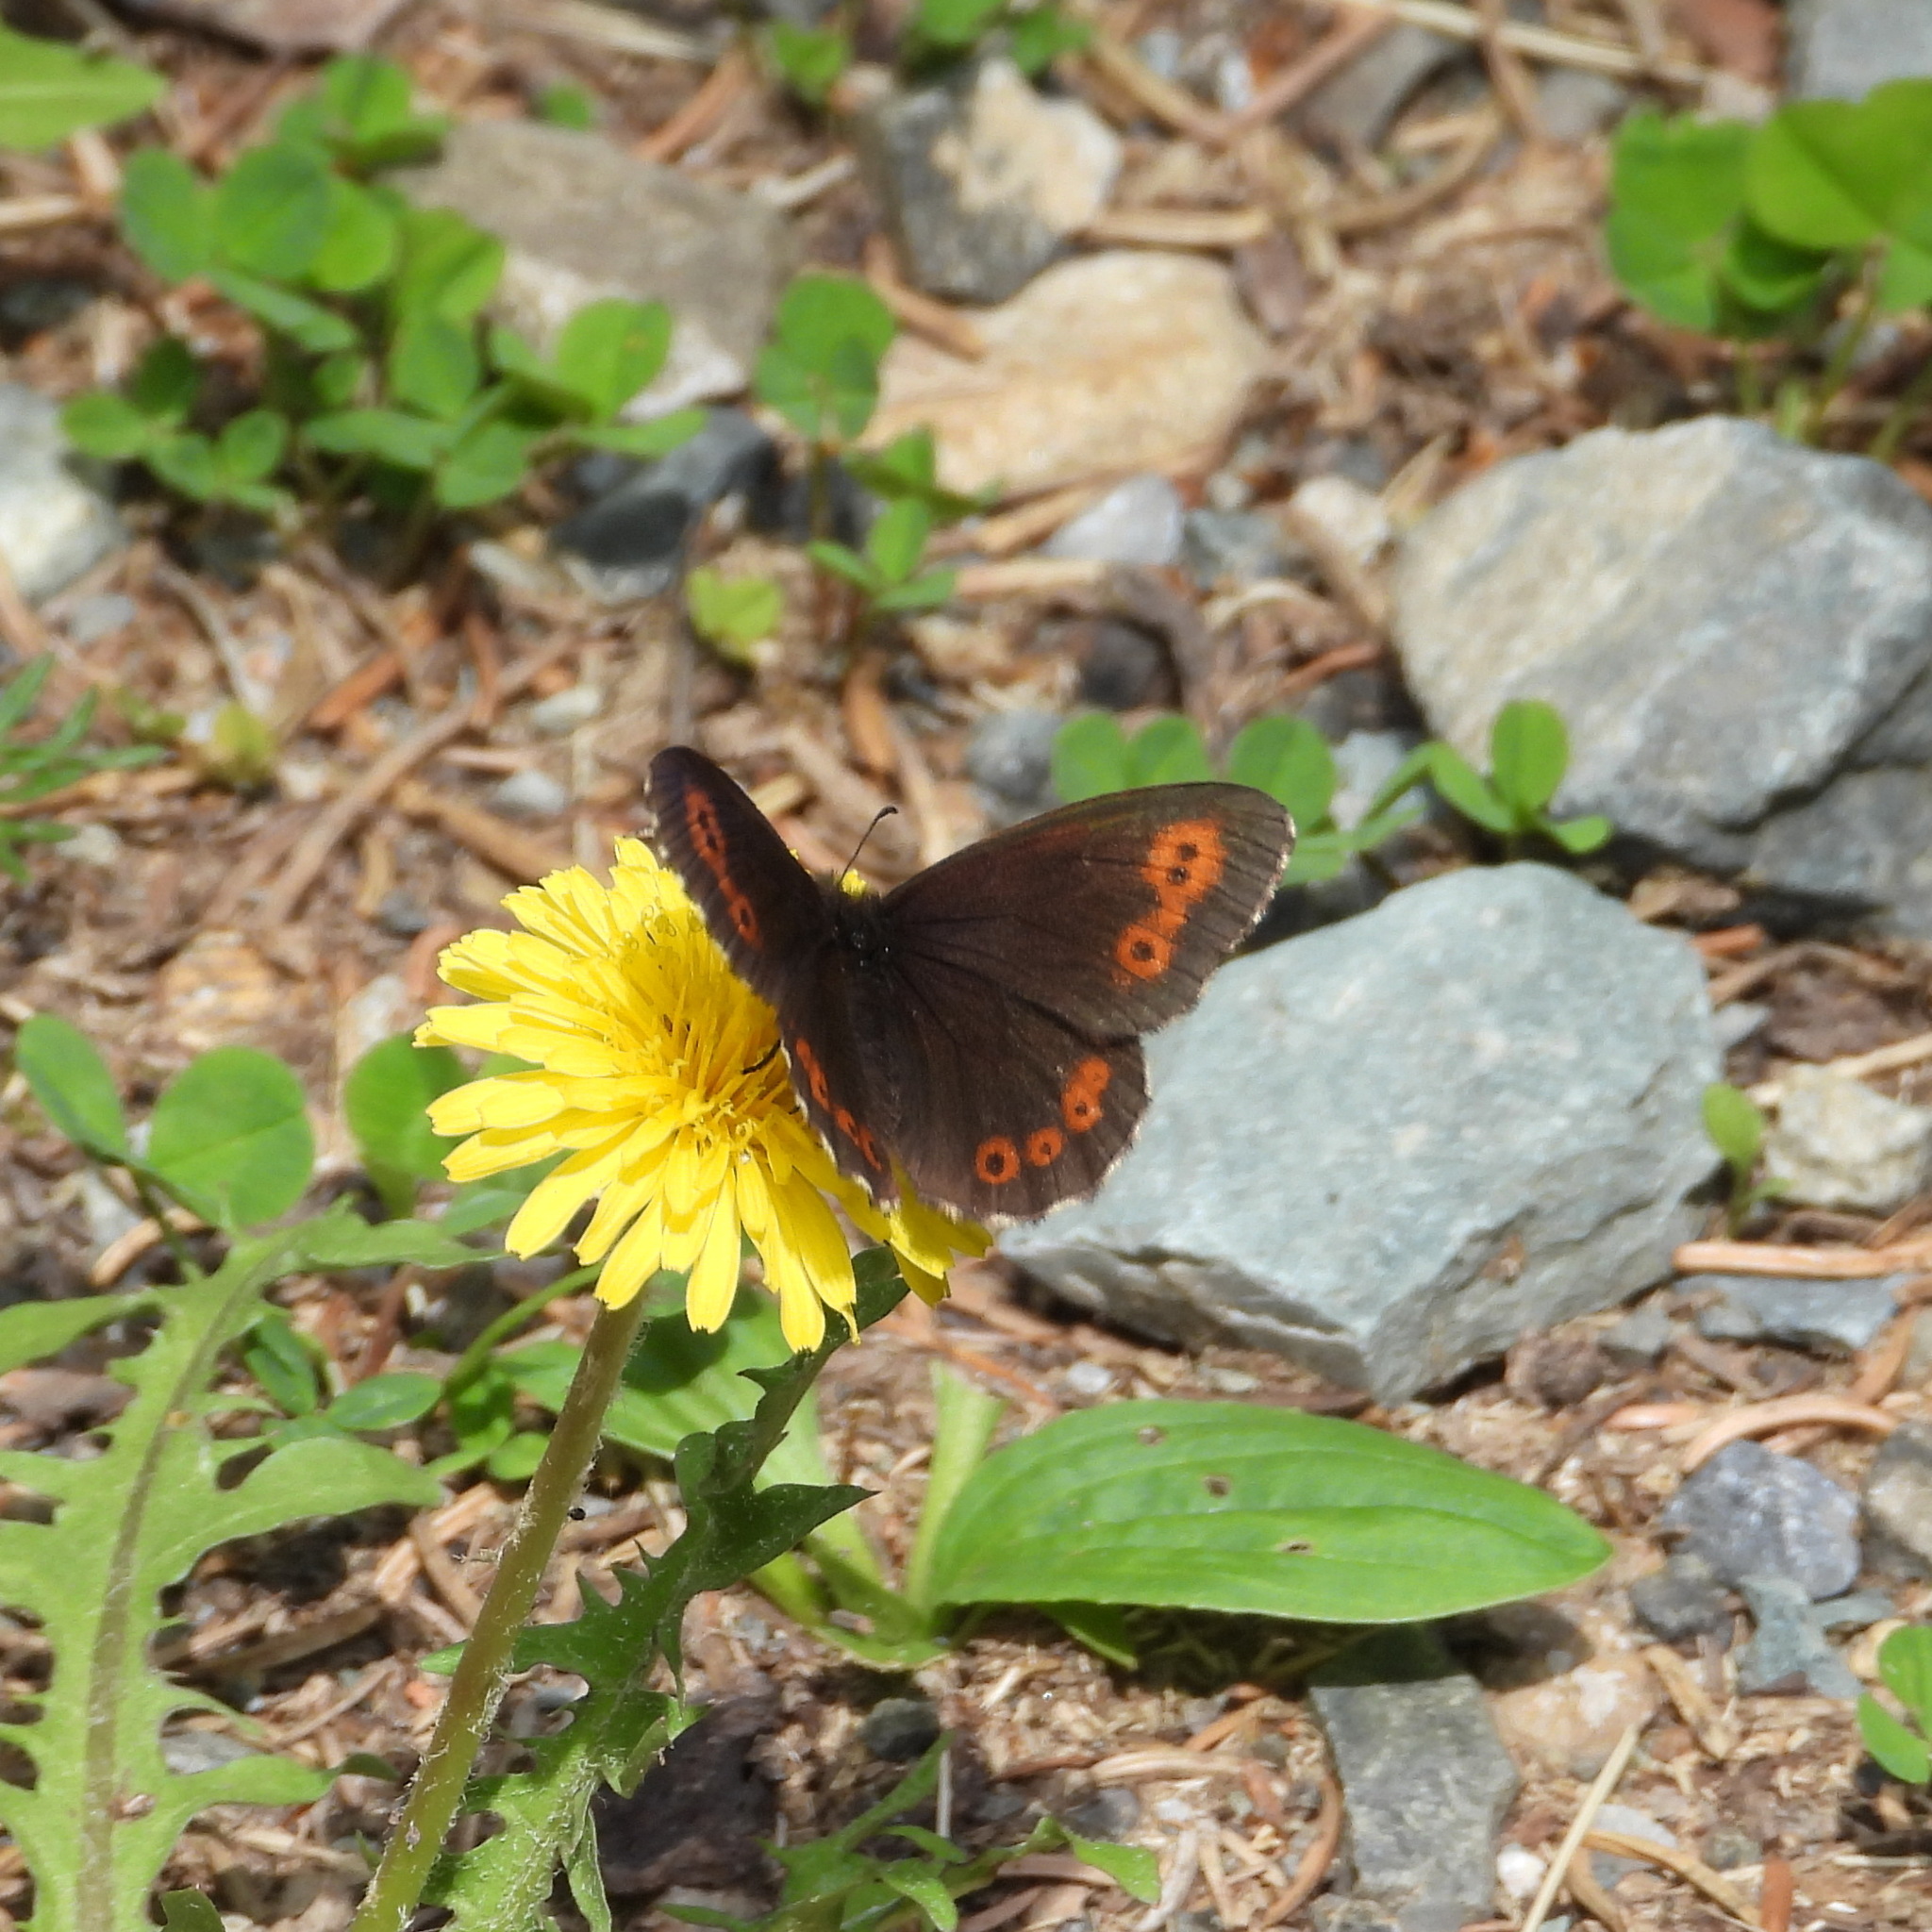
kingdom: Animalia
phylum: Arthropoda
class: Insecta
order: Lepidoptera
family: Nymphalidae
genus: Erebia
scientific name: Erebia jeniseiensis
